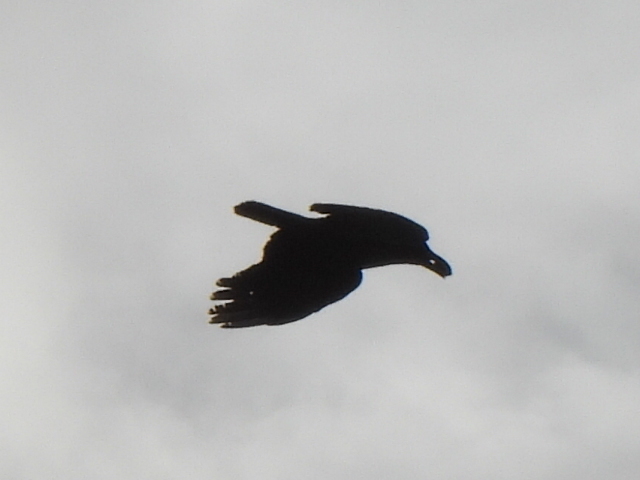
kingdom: Animalia
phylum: Chordata
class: Aves
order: Passeriformes
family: Corvidae
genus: Corvus
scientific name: Corvus brachyrhynchos
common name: American crow
